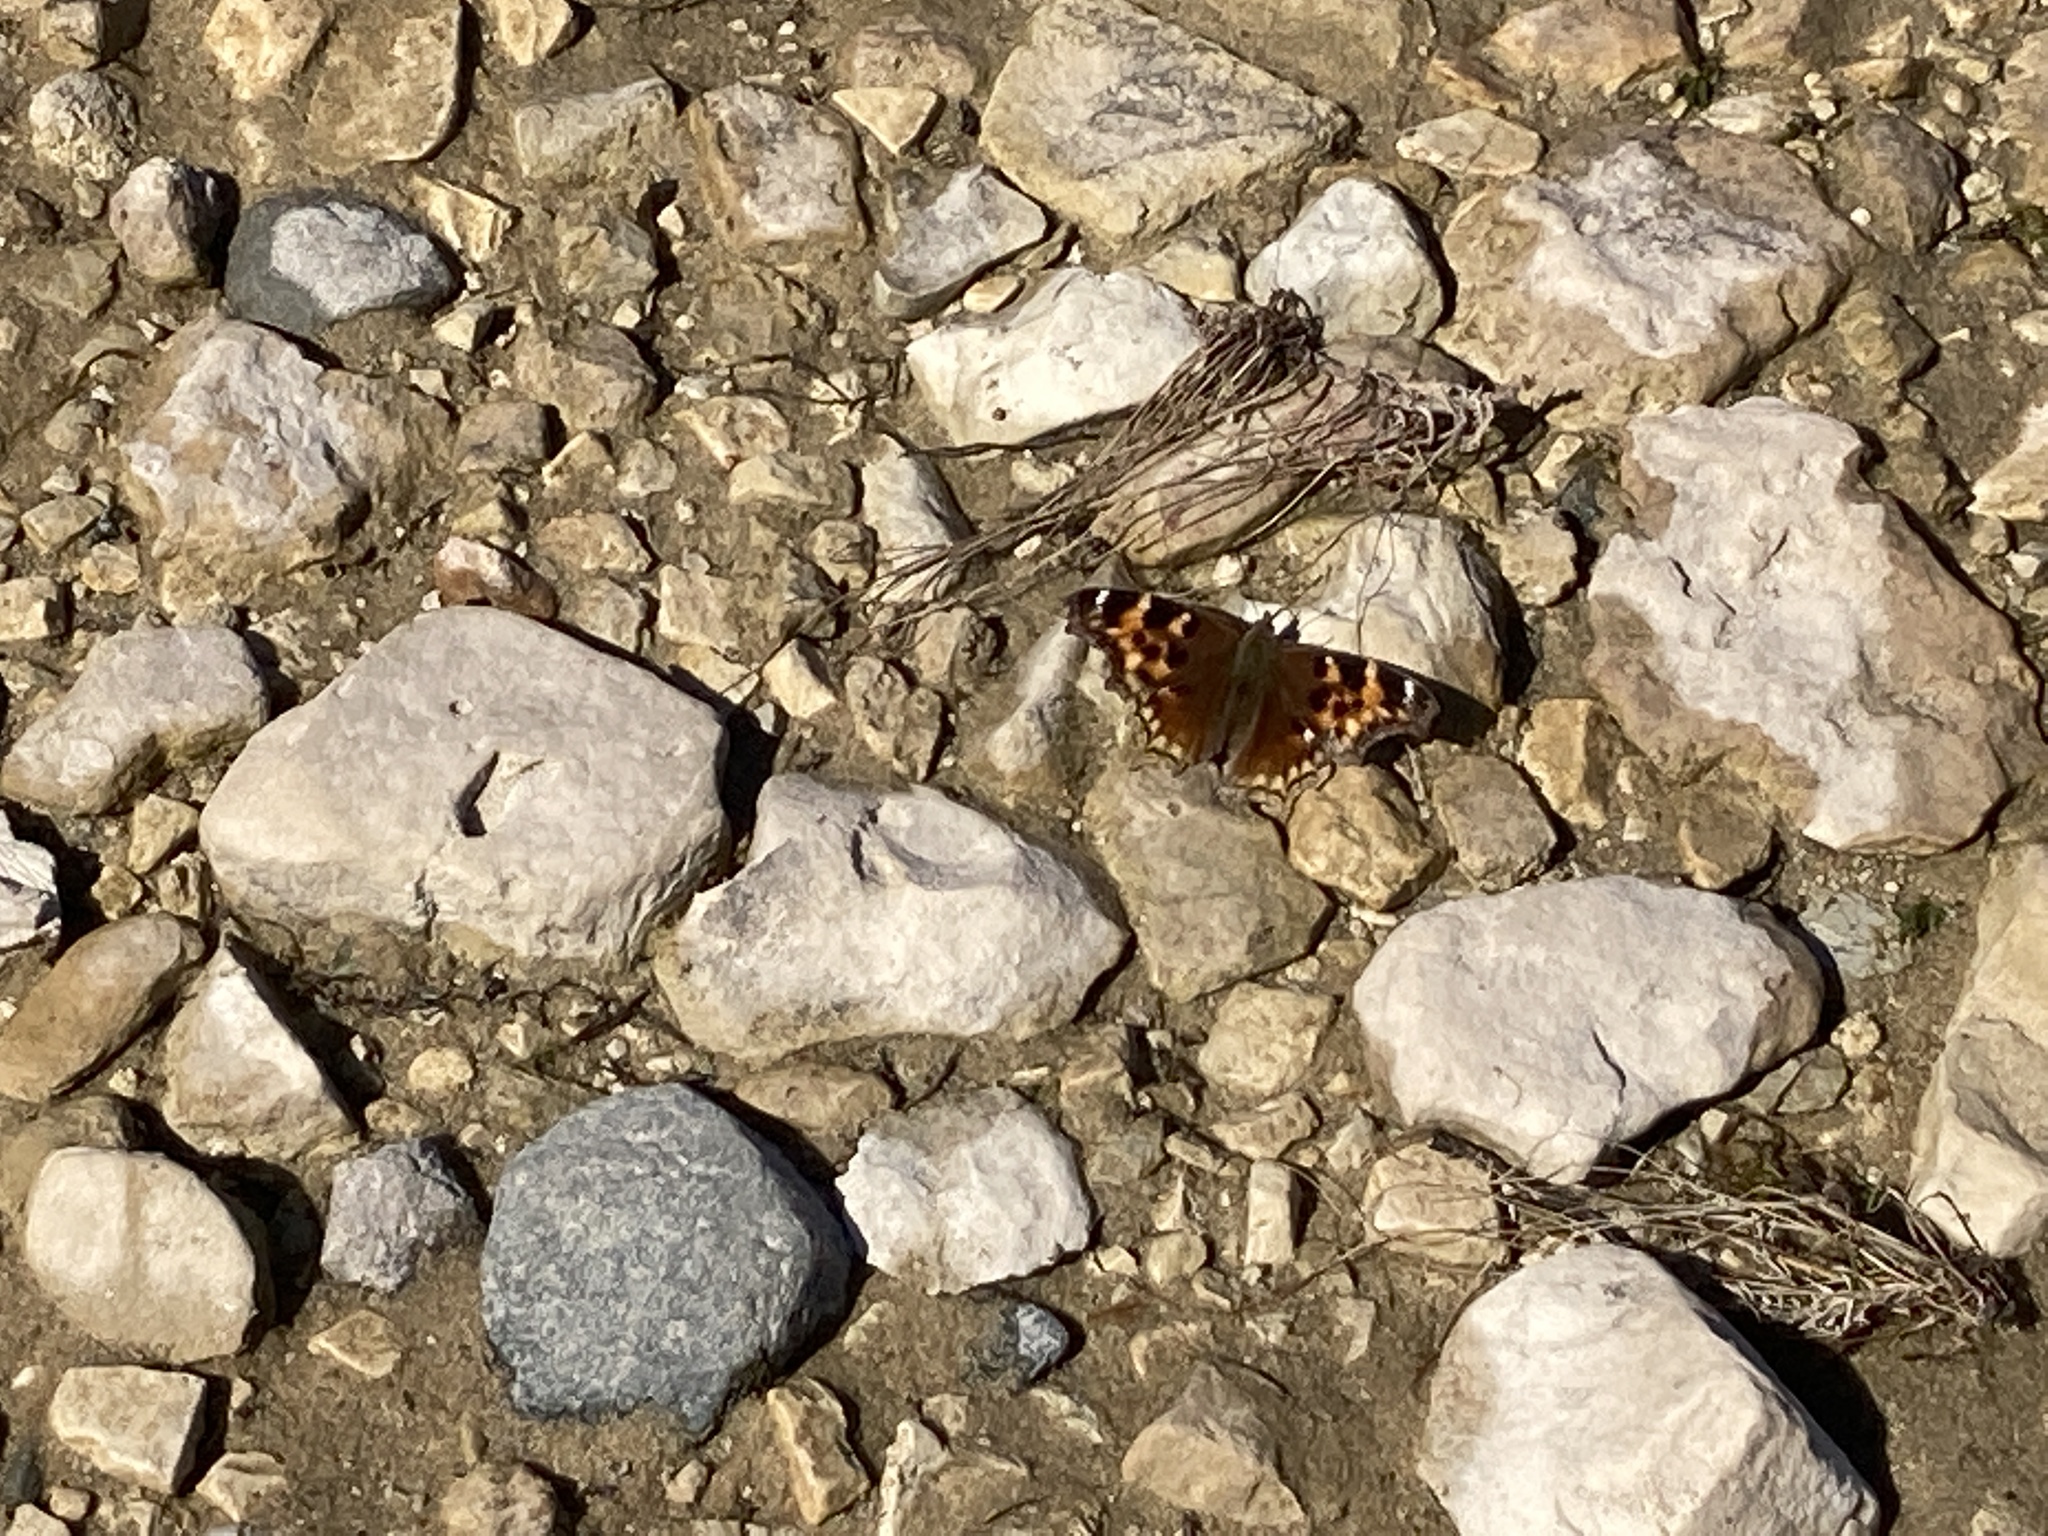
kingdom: Animalia
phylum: Arthropoda
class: Insecta
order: Lepidoptera
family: Nymphalidae
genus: Polygonia
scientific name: Polygonia vaualbum
